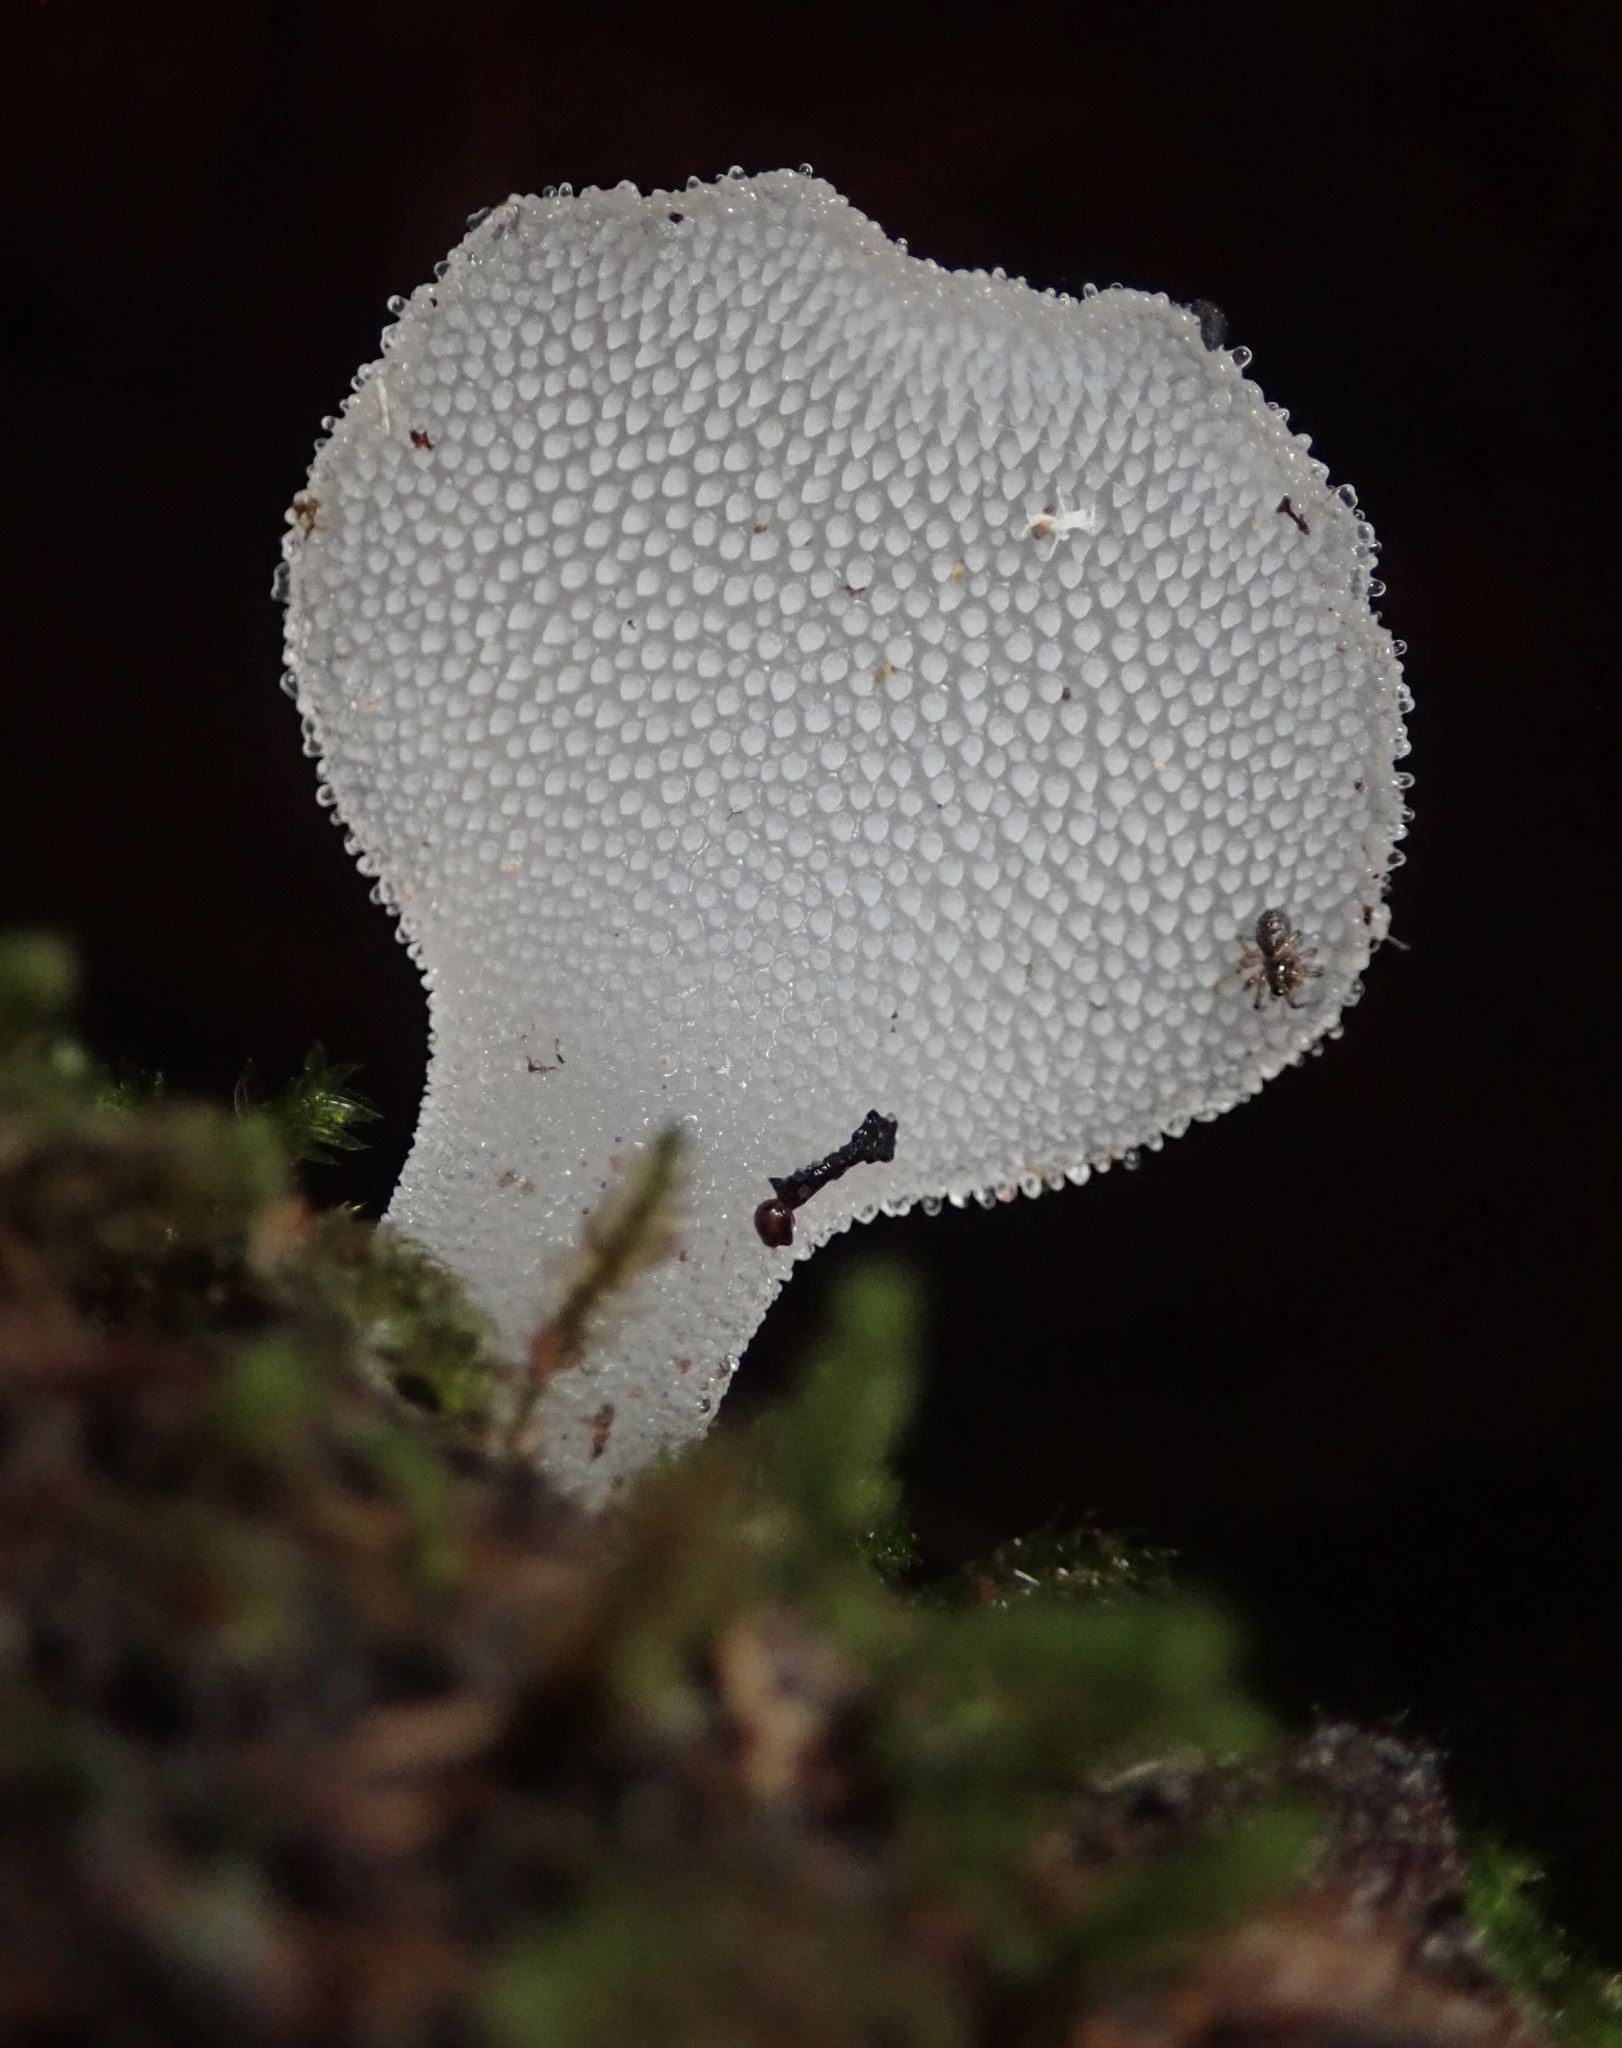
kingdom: Fungi
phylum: Basidiomycota
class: Agaricomycetes
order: Auriculariales
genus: Pseudohydnum
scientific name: Pseudohydnum gelatinosum
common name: Jelly tongue
